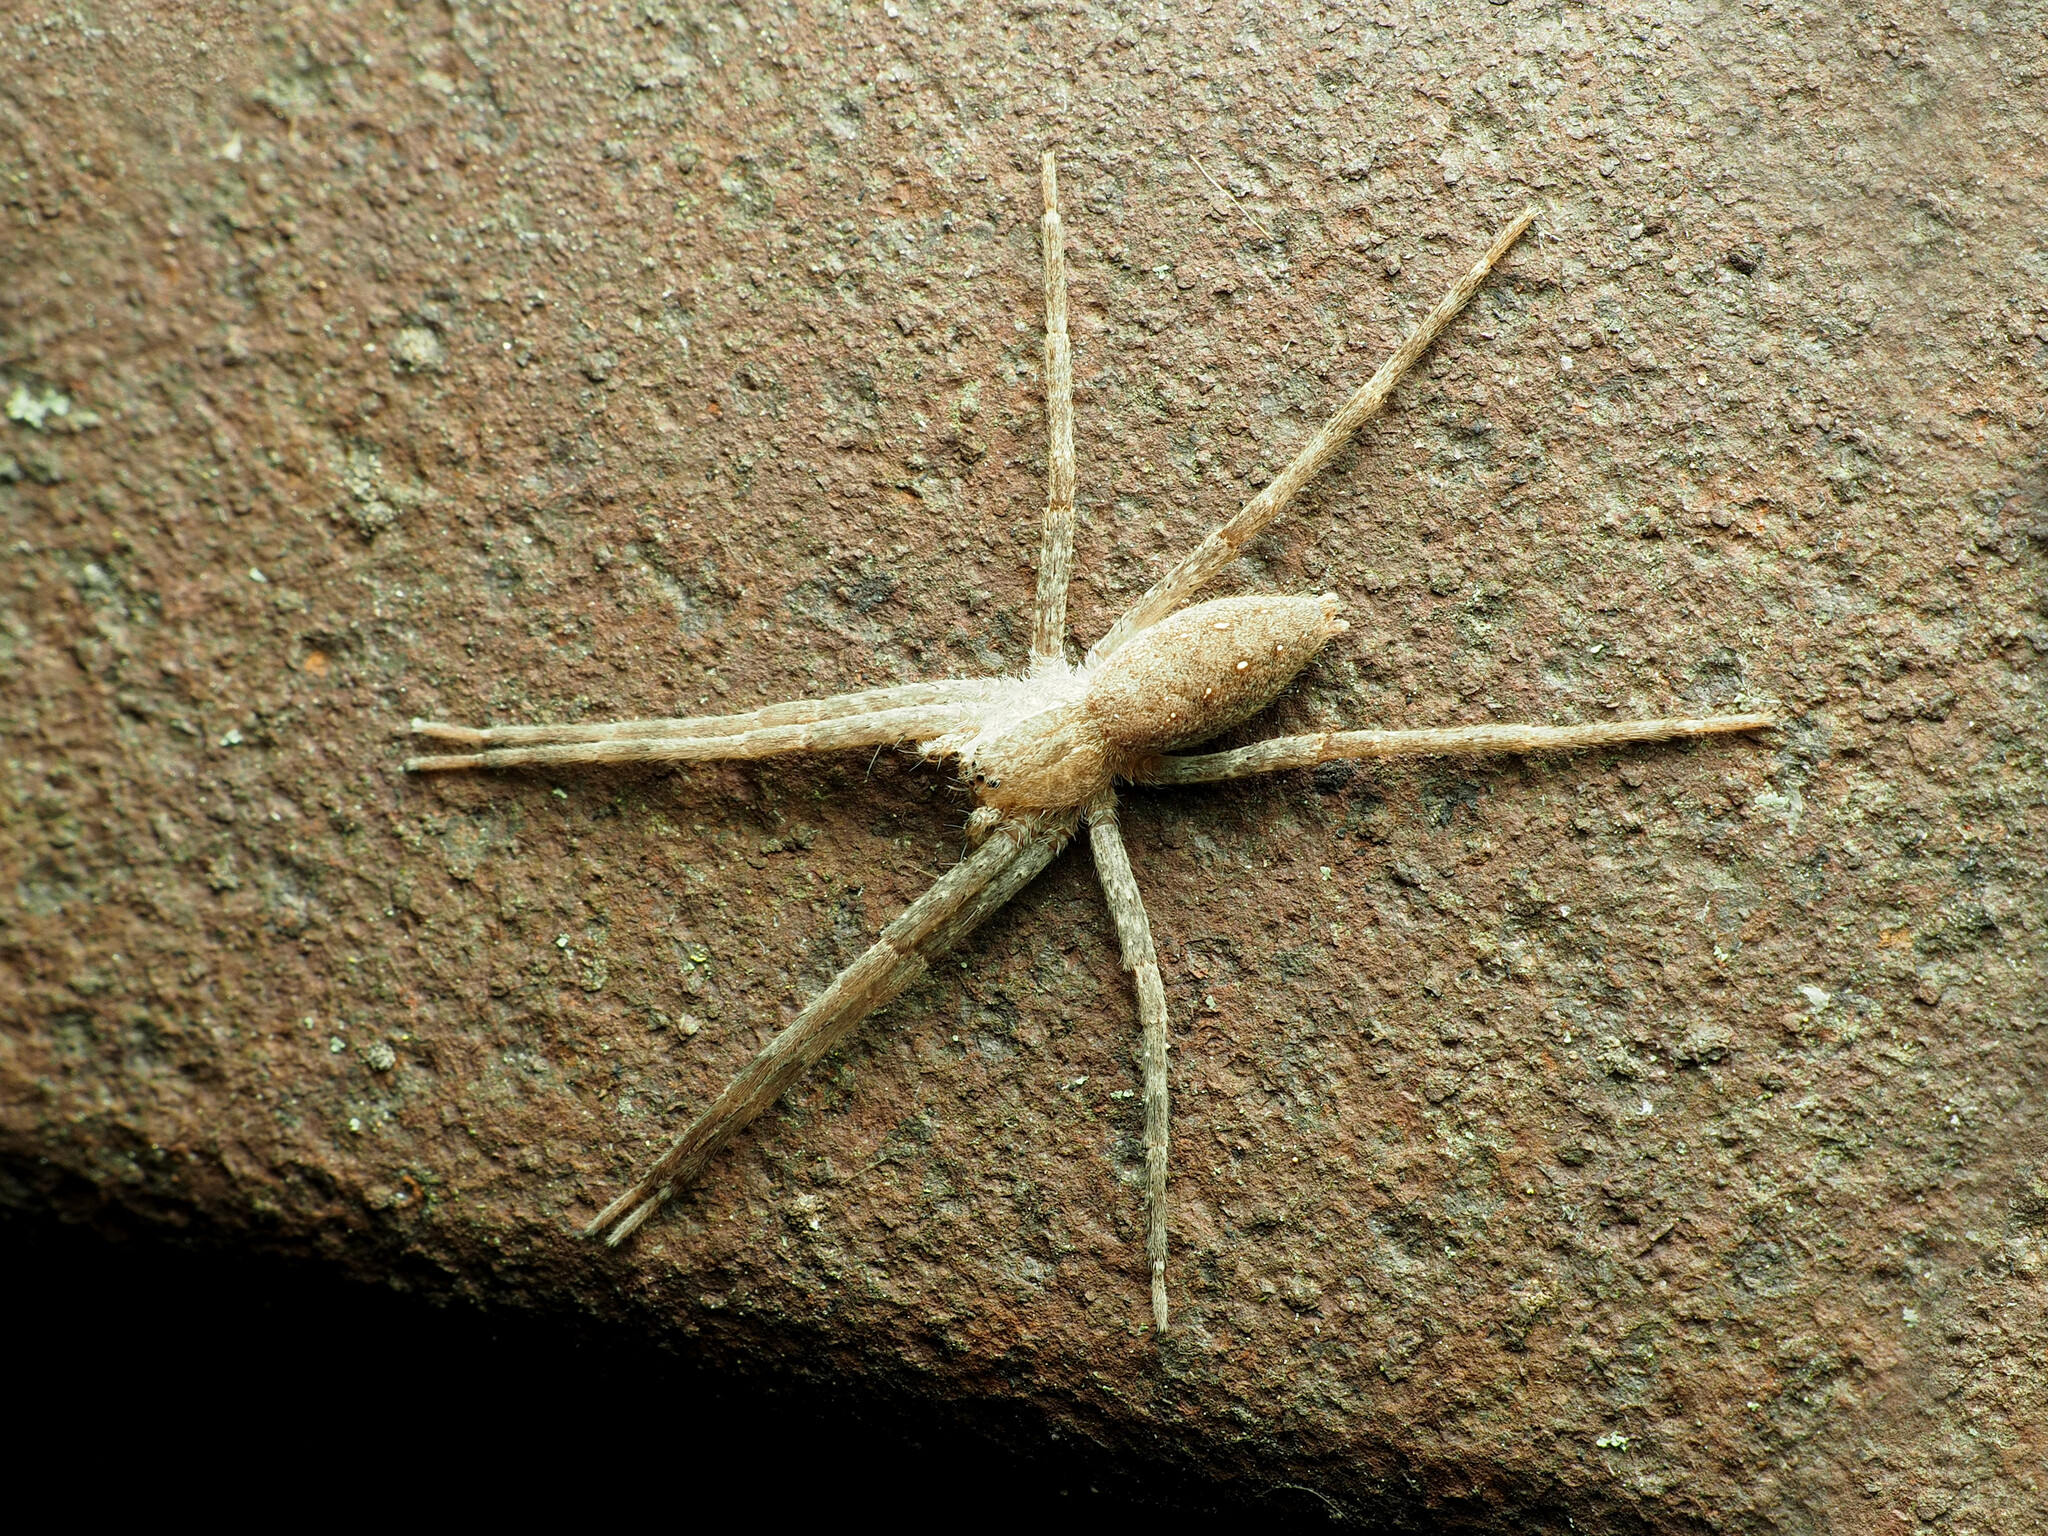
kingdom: Animalia
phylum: Arthropoda
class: Arachnida
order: Araneae
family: Pisauridae
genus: Pisaurina
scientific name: Pisaurina mira
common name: American nursery web spider
